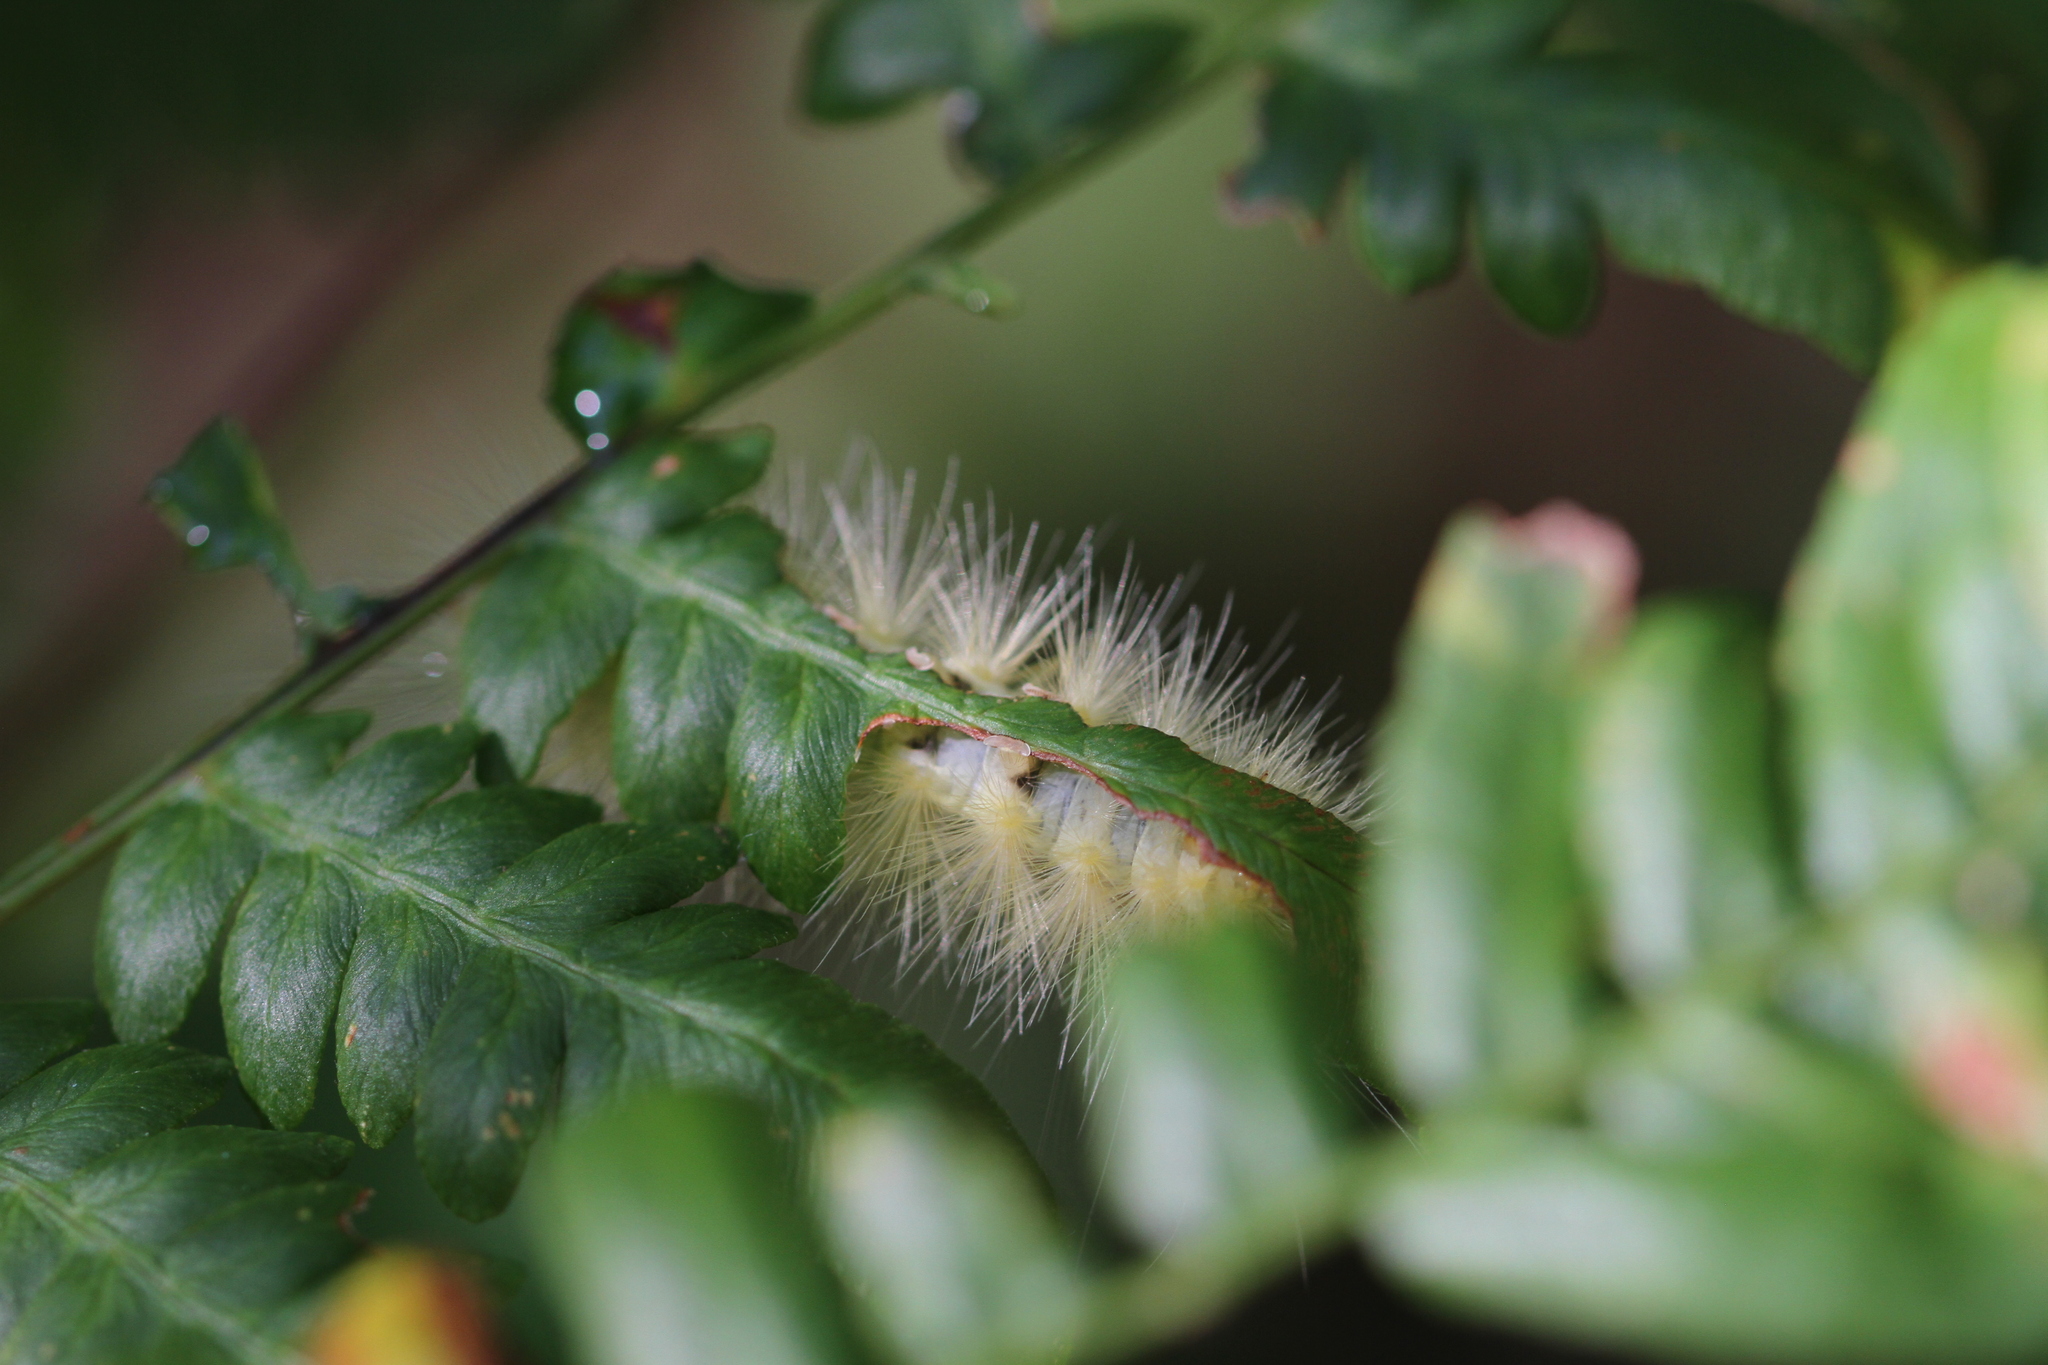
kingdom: Animalia
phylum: Arthropoda
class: Insecta
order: Lepidoptera
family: Erebidae
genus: Spilosoma
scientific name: Spilosoma virginica
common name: Virginia tiger moth
